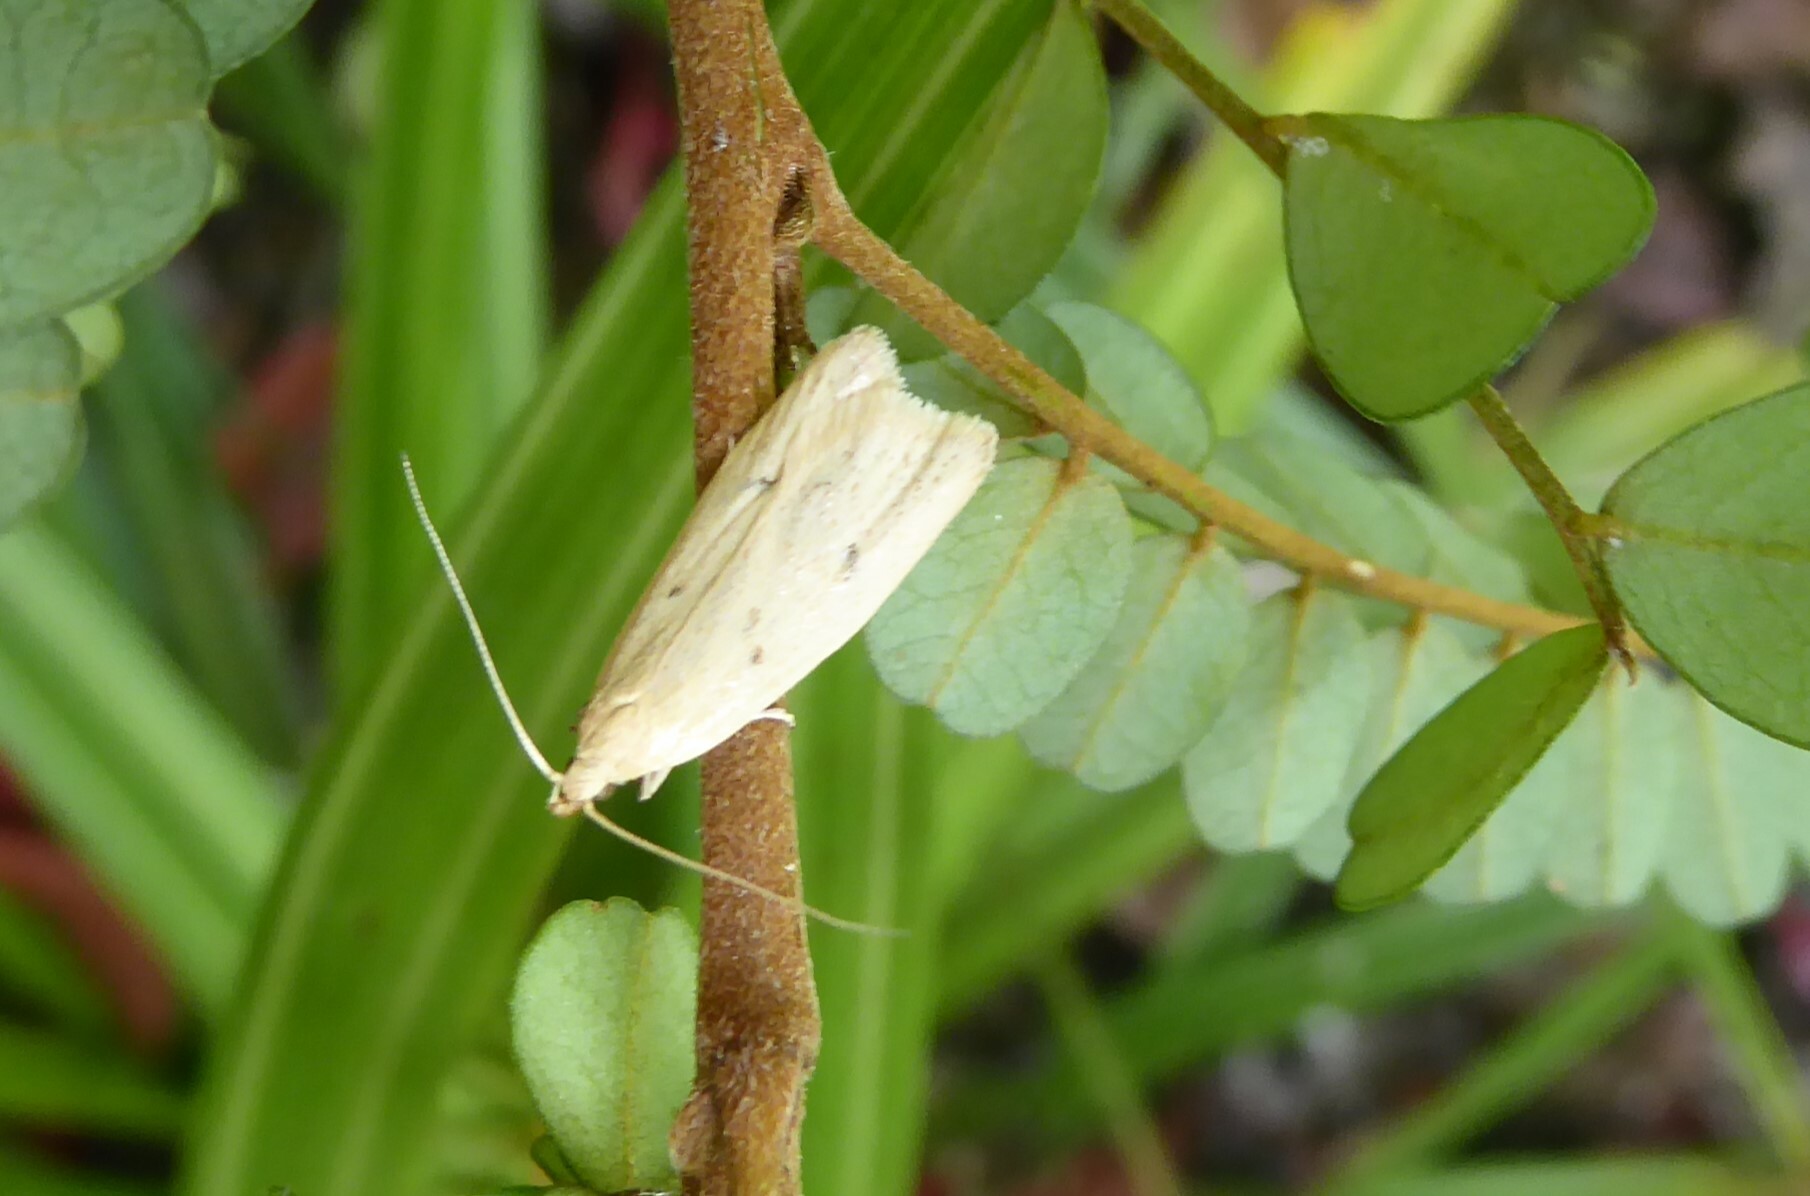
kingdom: Animalia
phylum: Arthropoda
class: Insecta
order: Lepidoptera
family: Oecophoridae
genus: Gymnobathra
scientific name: Gymnobathra sarcoxantha
